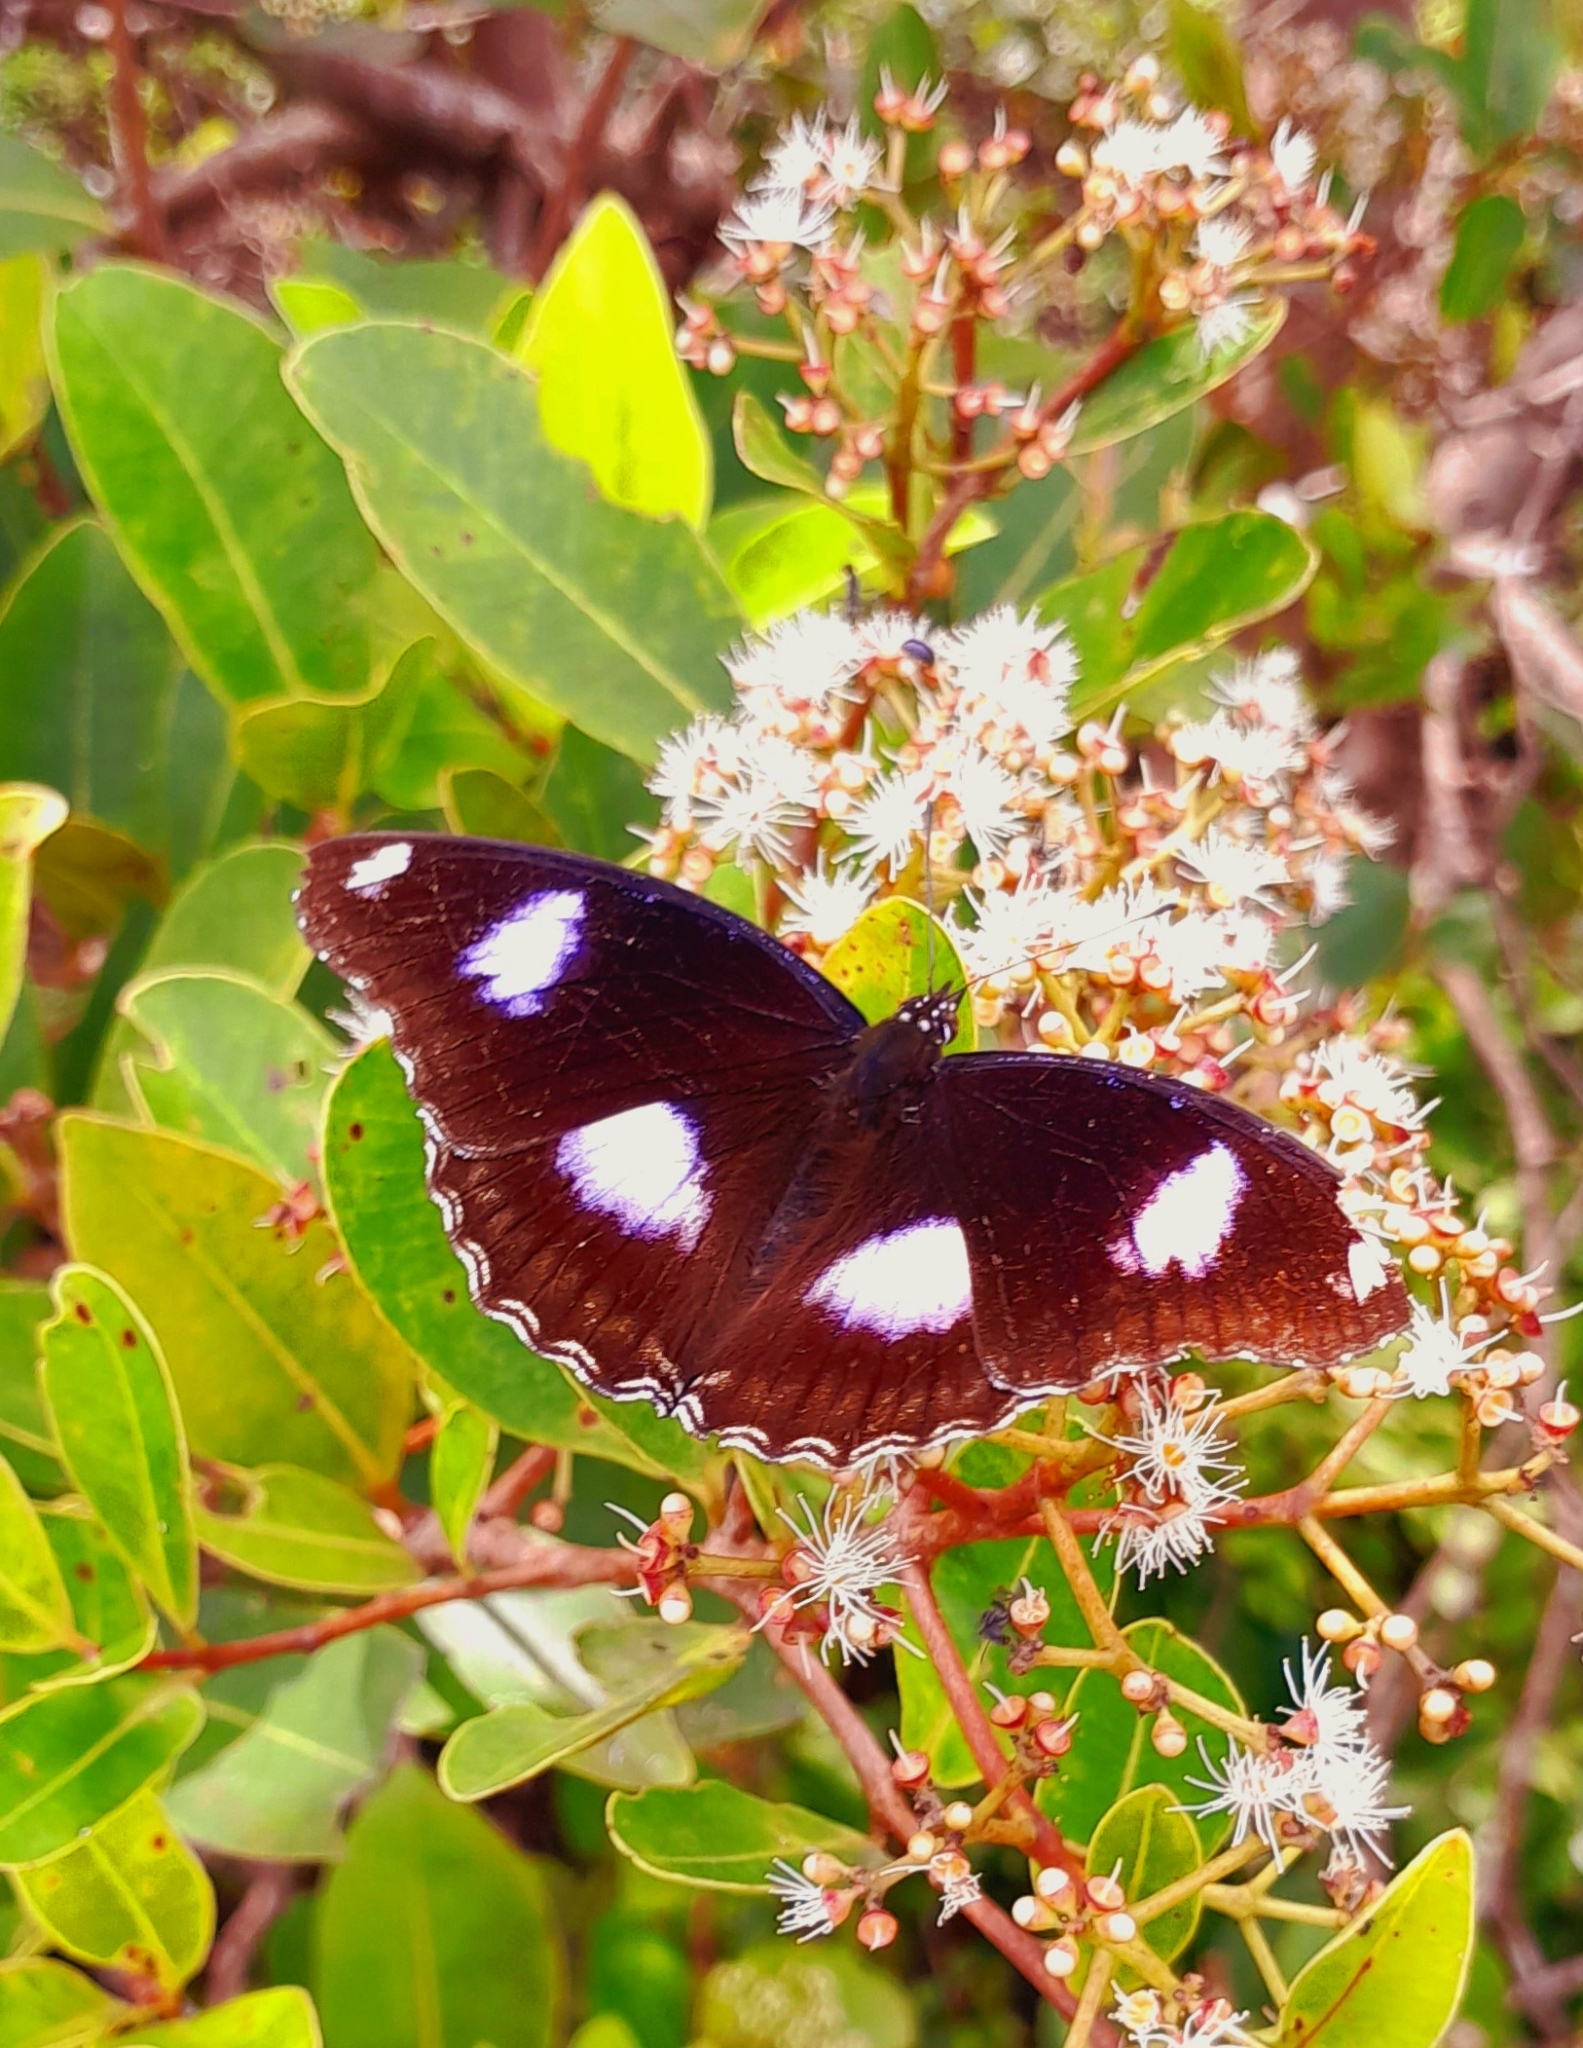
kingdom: Animalia
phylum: Arthropoda
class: Insecta
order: Lepidoptera
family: Nymphalidae
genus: Hypolimnas
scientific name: Hypolimnas bolina
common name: Great eggfly
